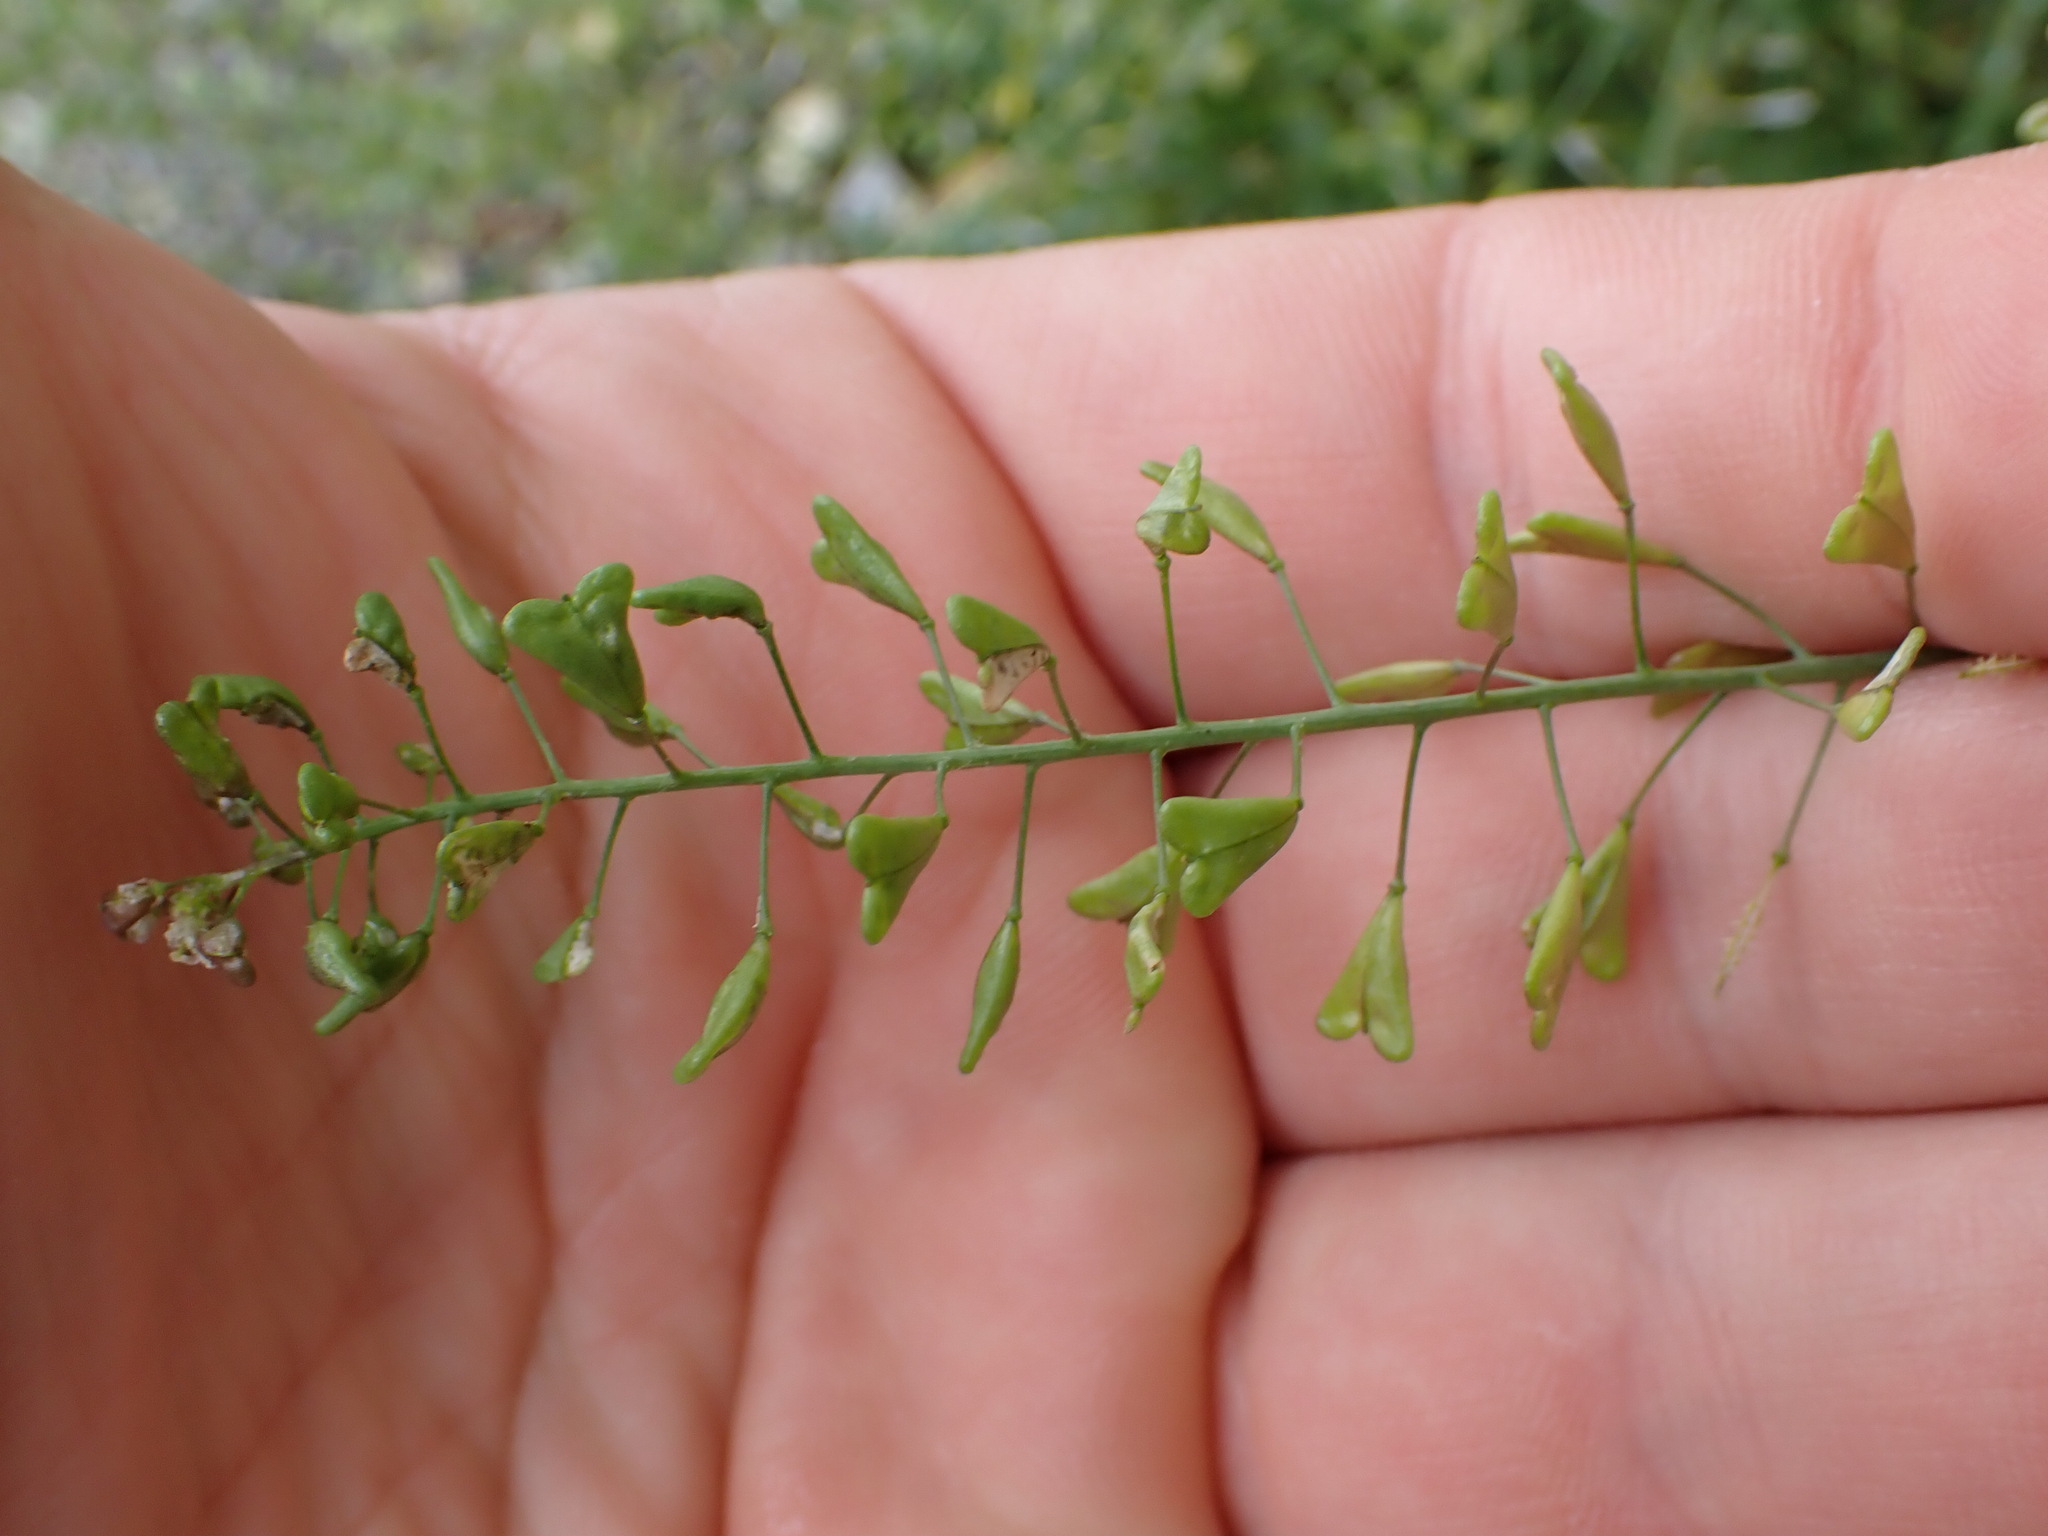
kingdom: Plantae
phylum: Tracheophyta
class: Magnoliopsida
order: Brassicales
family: Brassicaceae
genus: Capsella
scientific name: Capsella bursa-pastoris
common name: Shepherd's purse
